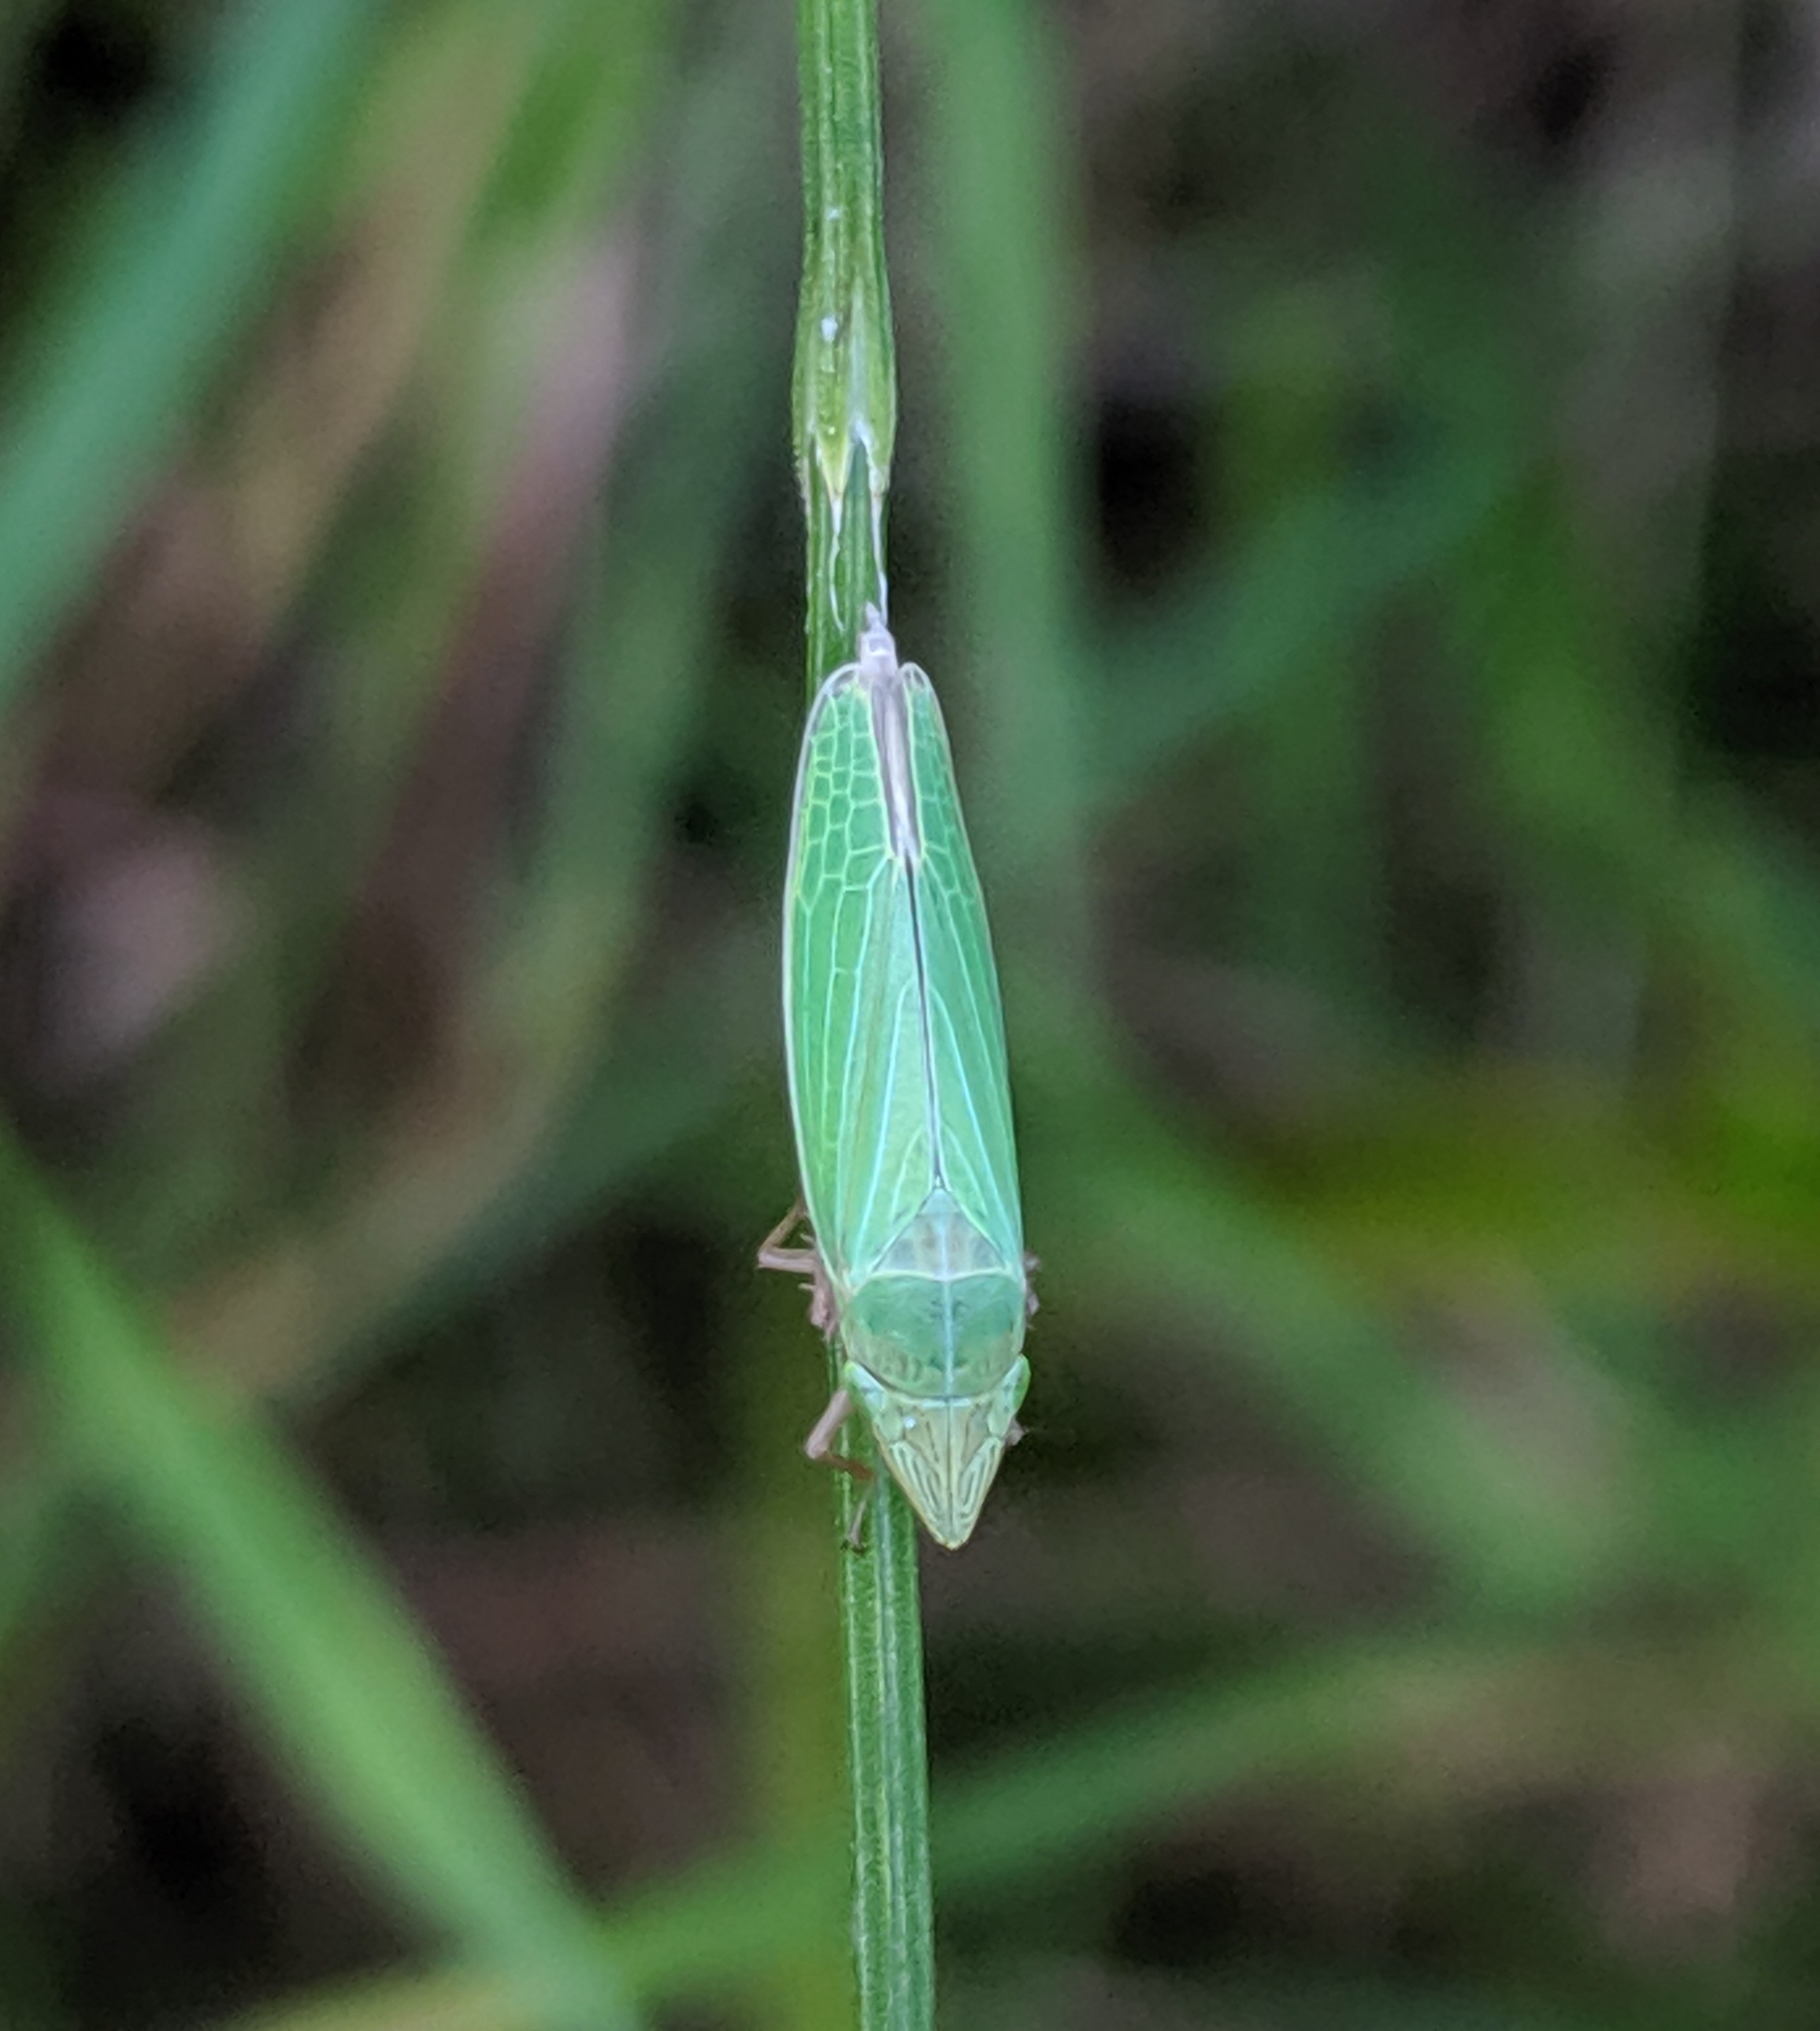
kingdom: Animalia
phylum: Arthropoda
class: Insecta
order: Hemiptera
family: Cicadellidae
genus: Draeculacephala
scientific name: Draeculacephala robinsoni
